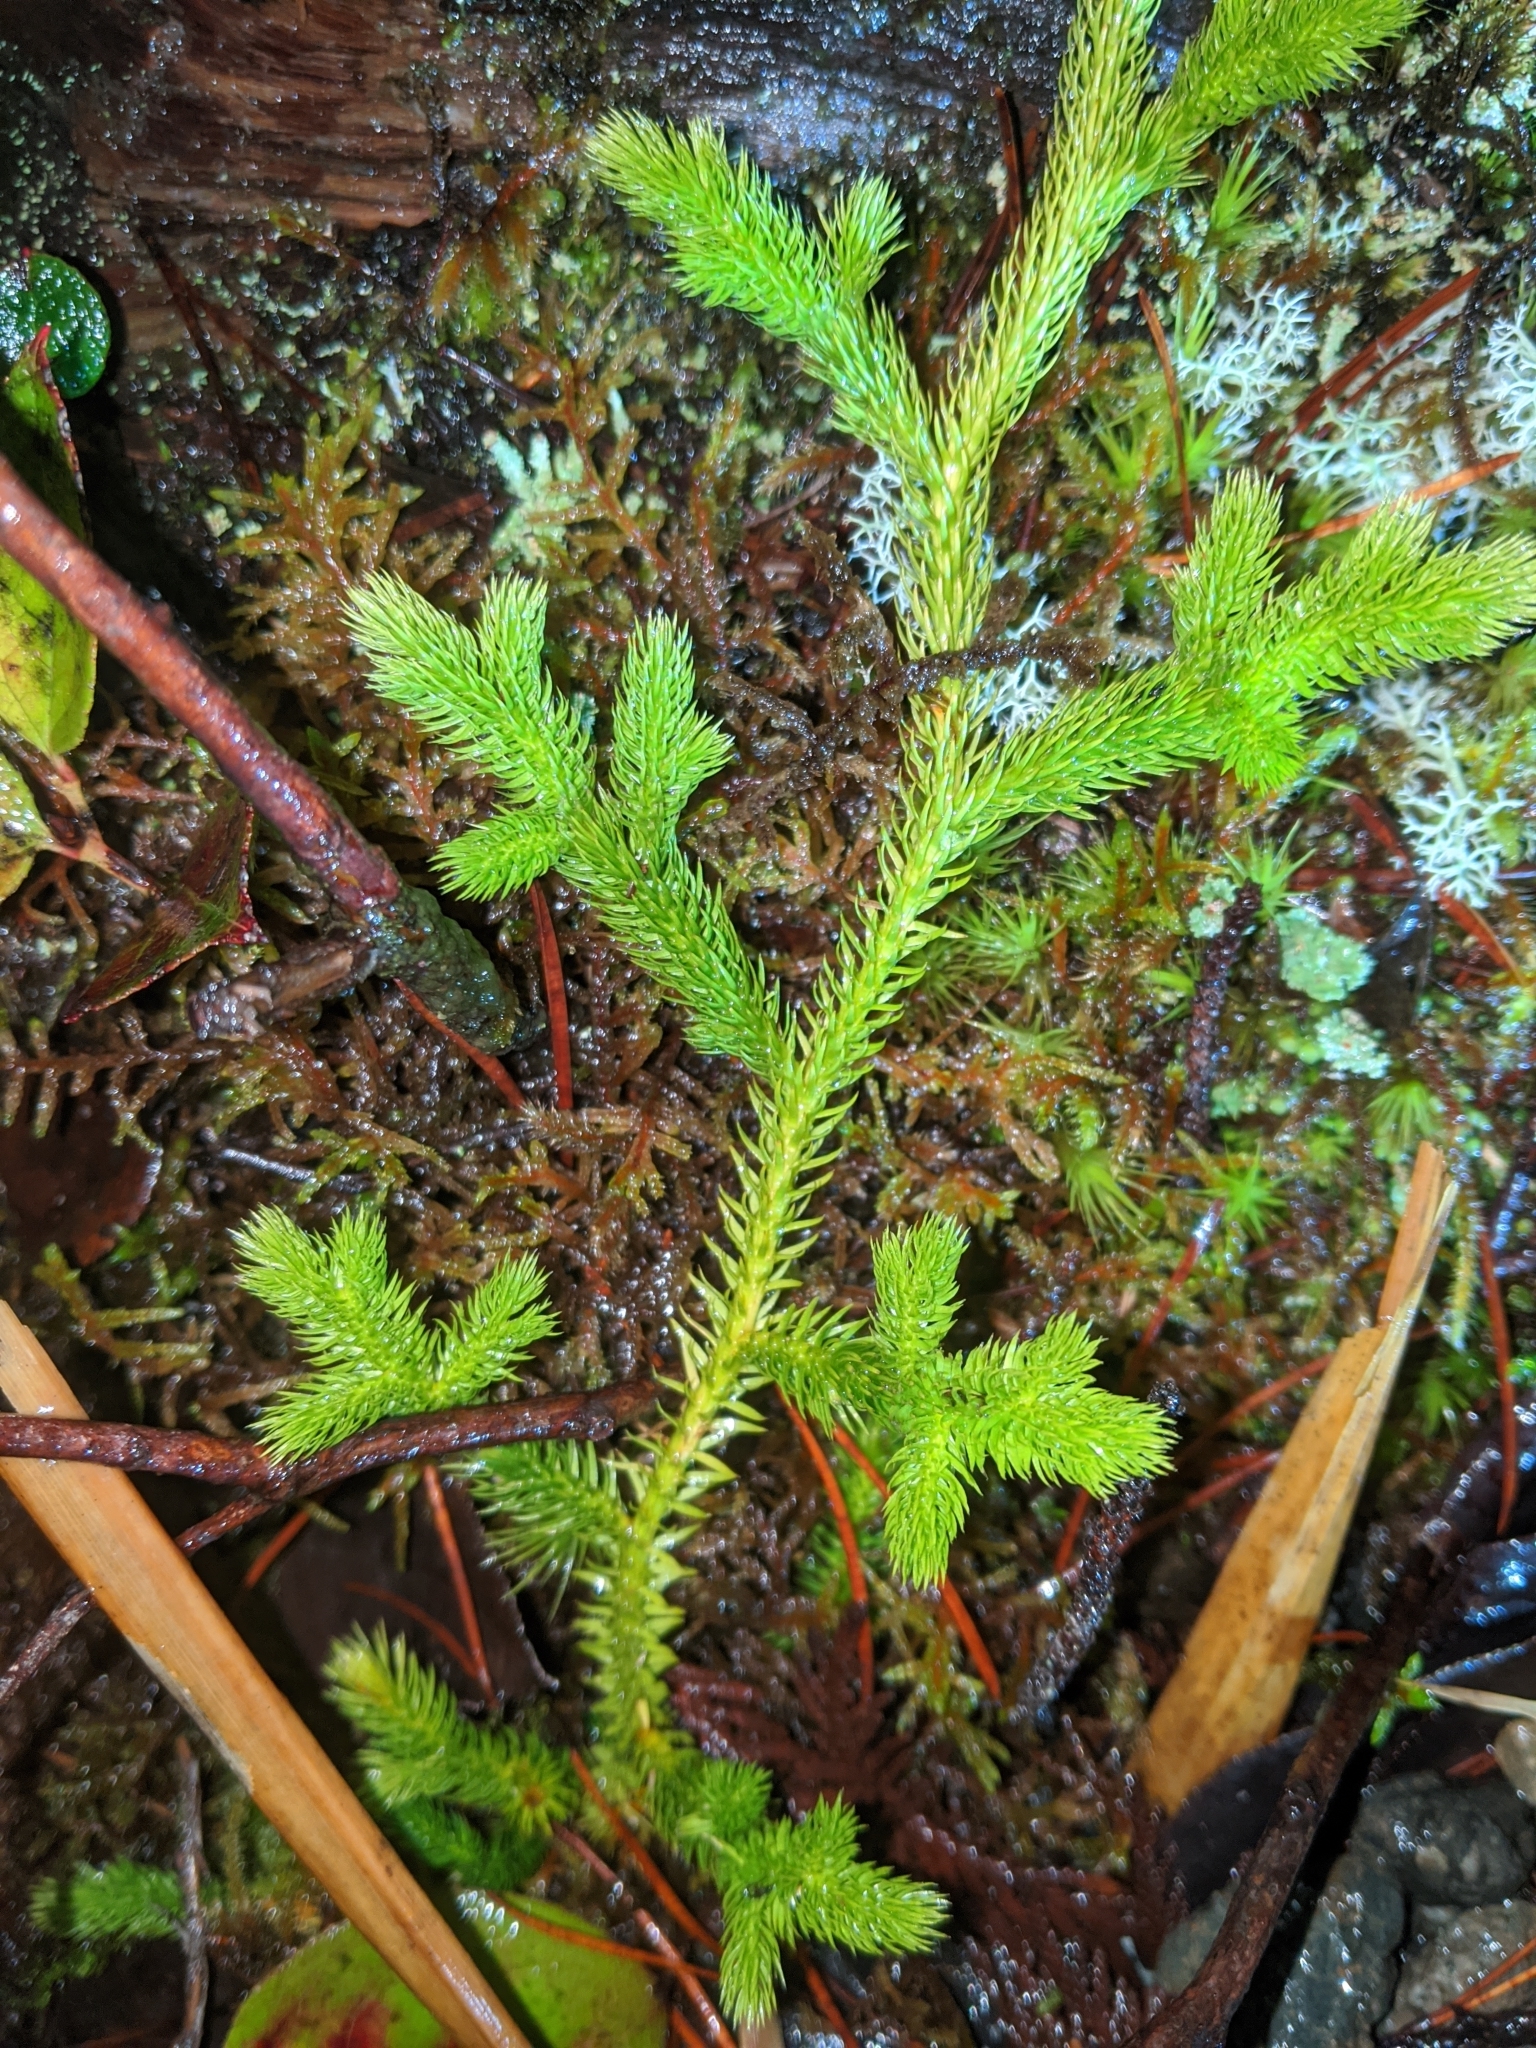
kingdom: Plantae
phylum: Tracheophyta
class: Lycopodiopsida
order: Lycopodiales
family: Lycopodiaceae
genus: Lycopodium
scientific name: Lycopodium clavatum
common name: Stag's-horn clubmoss
